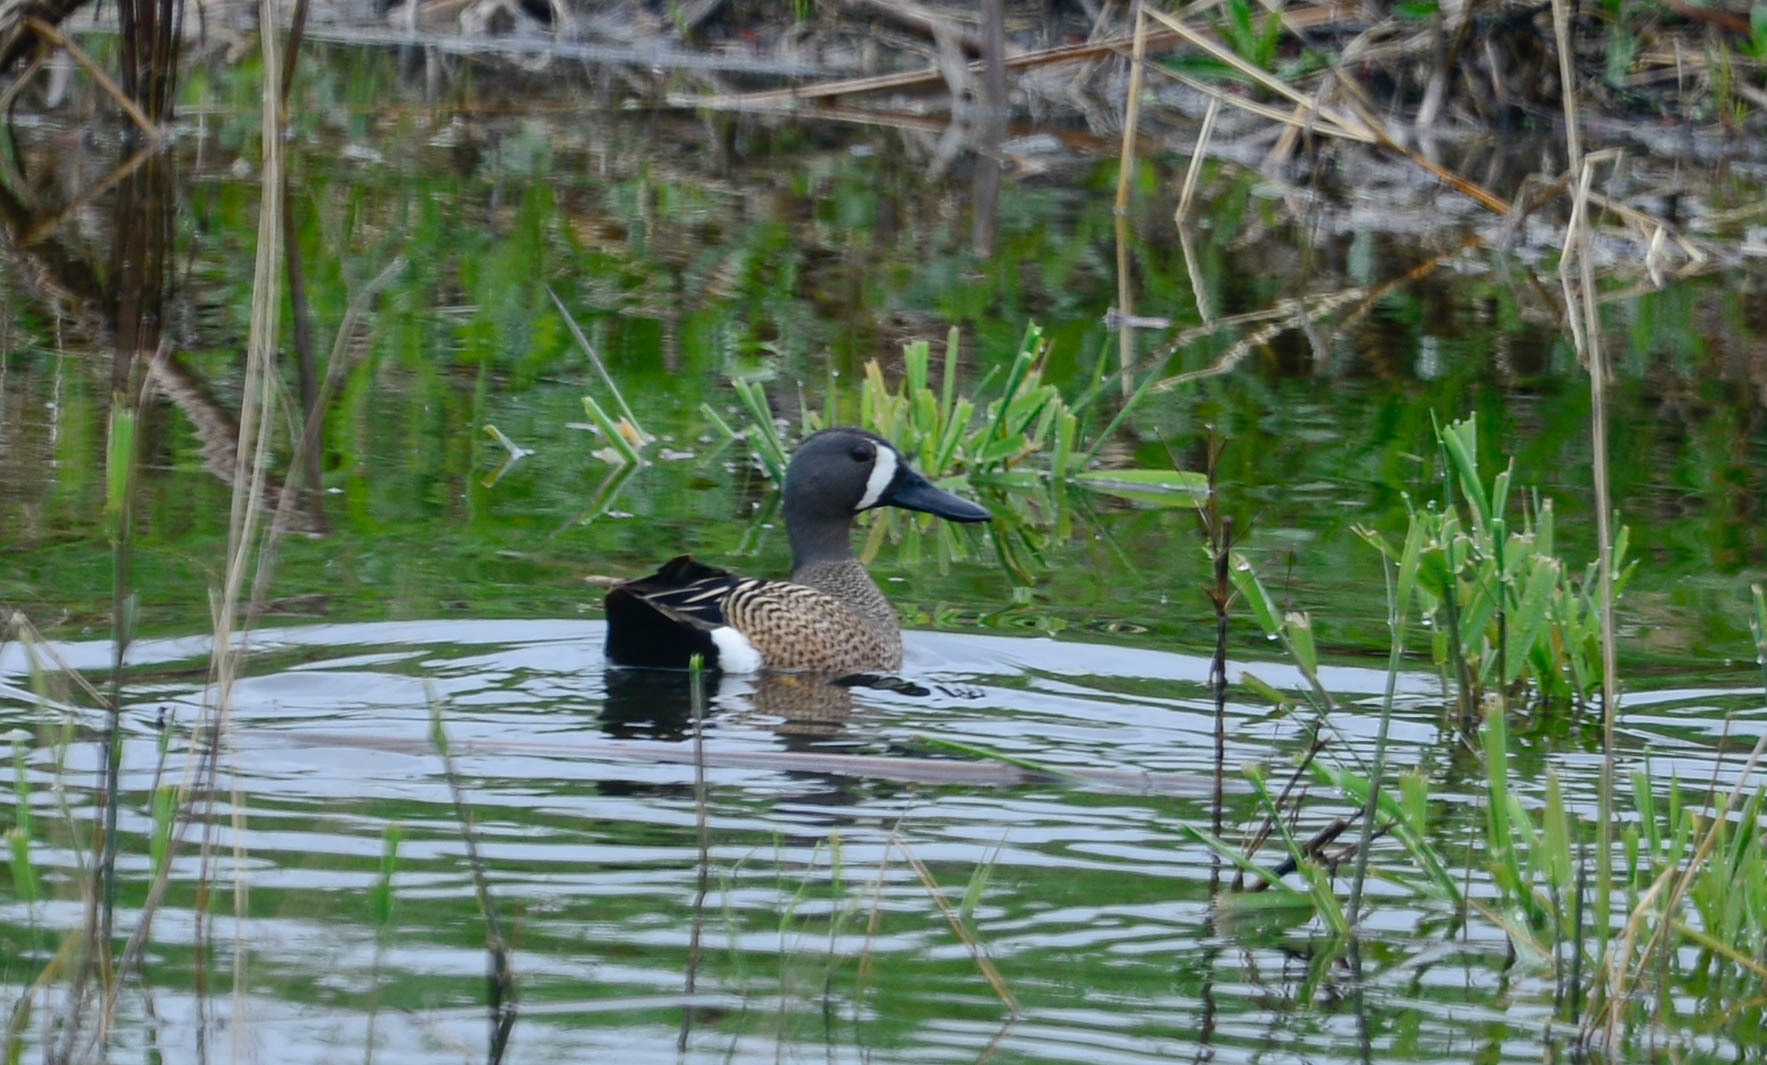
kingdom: Animalia
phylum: Chordata
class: Aves
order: Anseriformes
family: Anatidae
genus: Spatula
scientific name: Spatula discors
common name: Blue-winged teal
